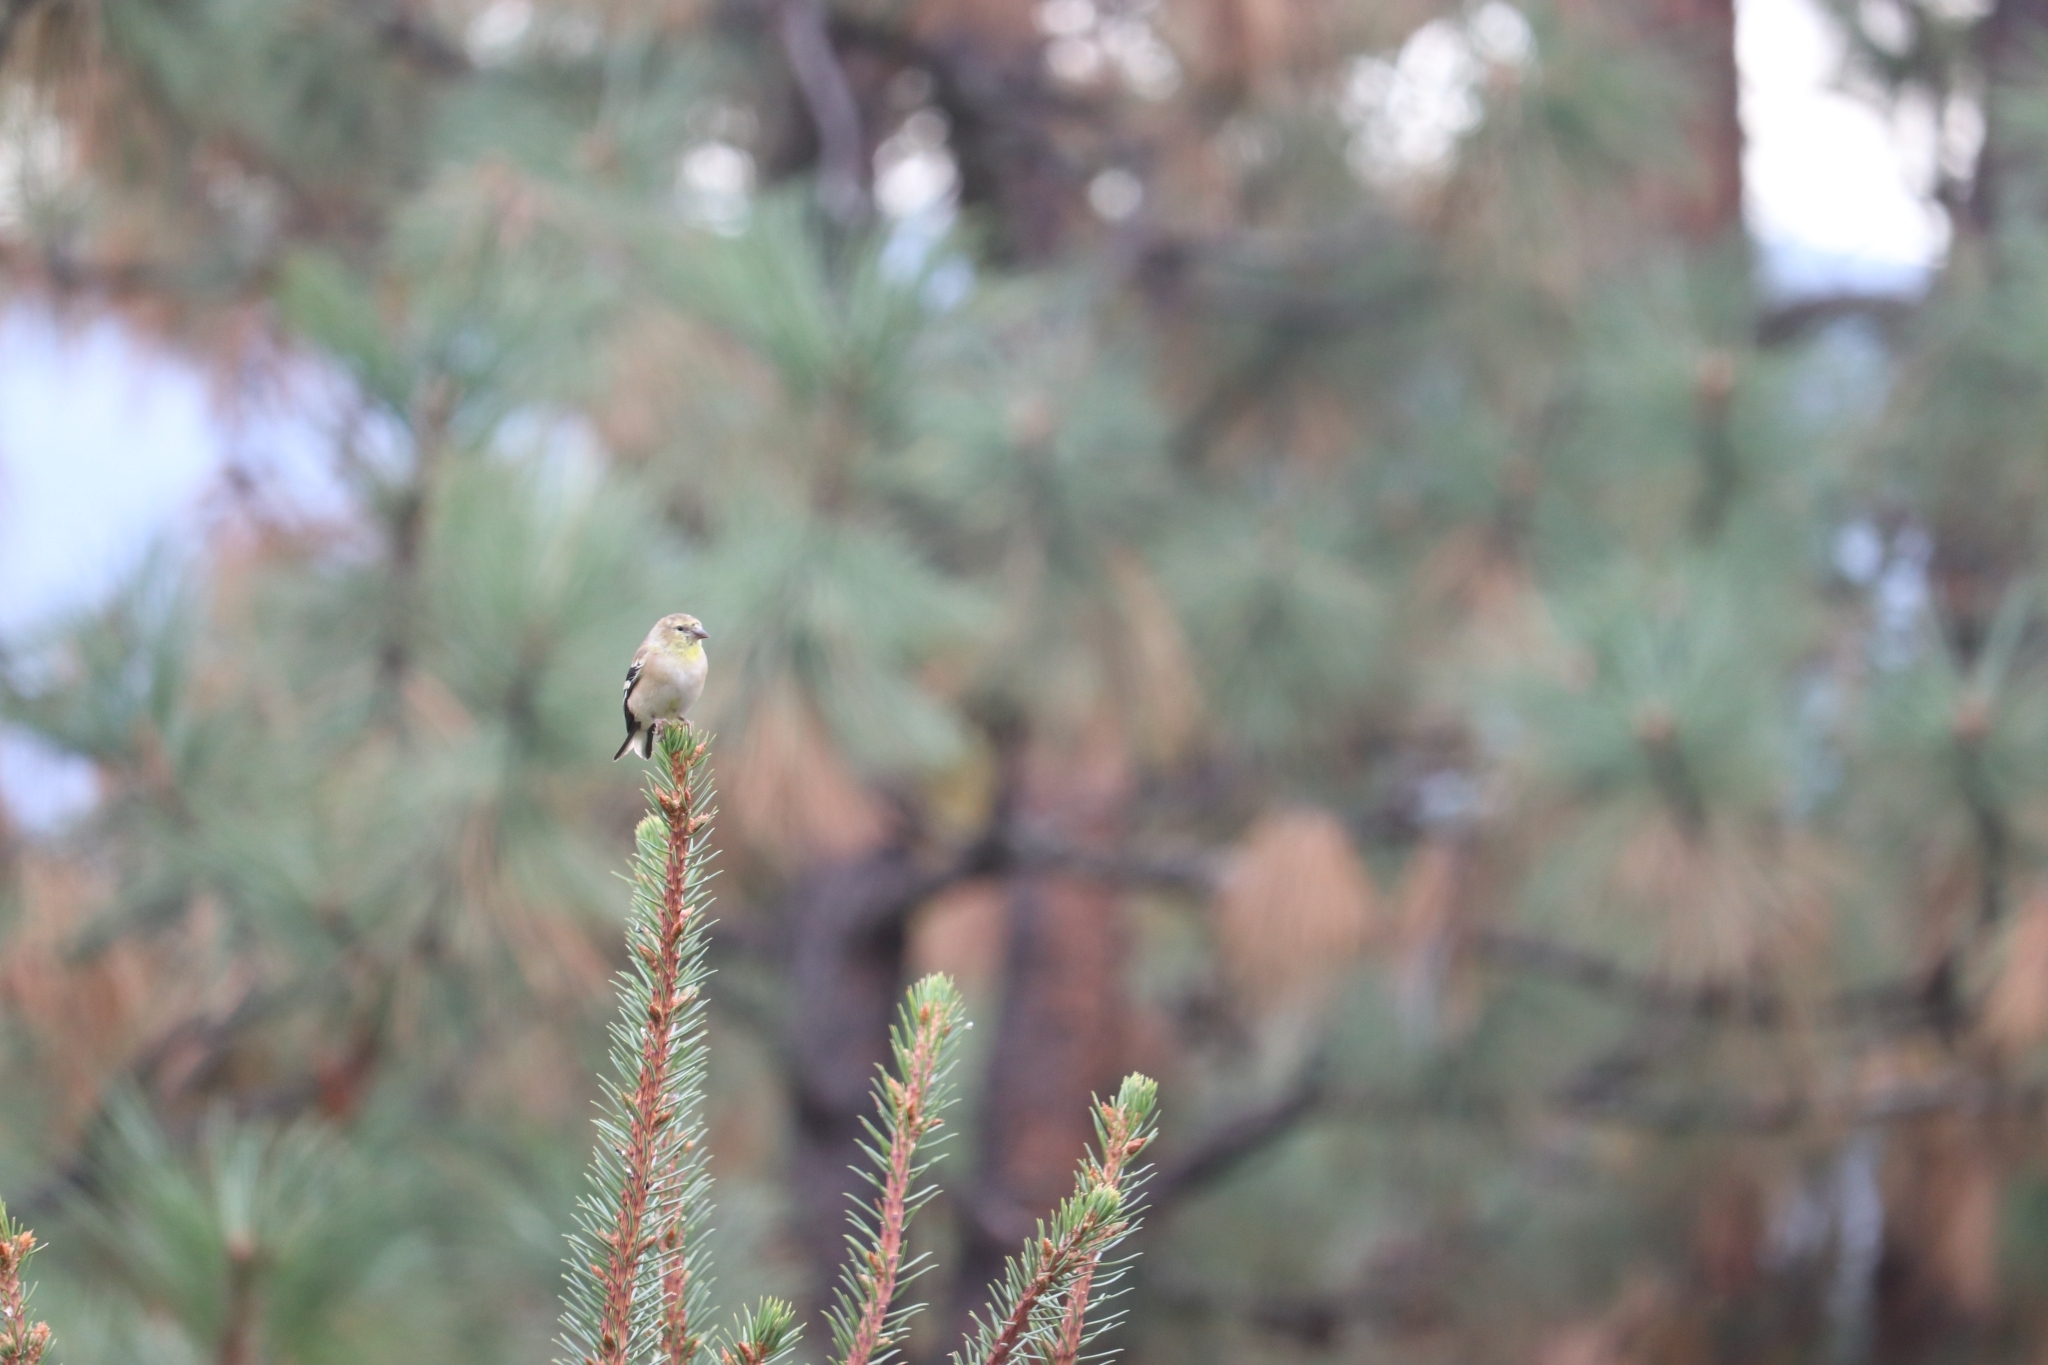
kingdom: Animalia
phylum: Chordata
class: Aves
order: Passeriformes
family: Fringillidae
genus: Spinus
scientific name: Spinus tristis
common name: American goldfinch
